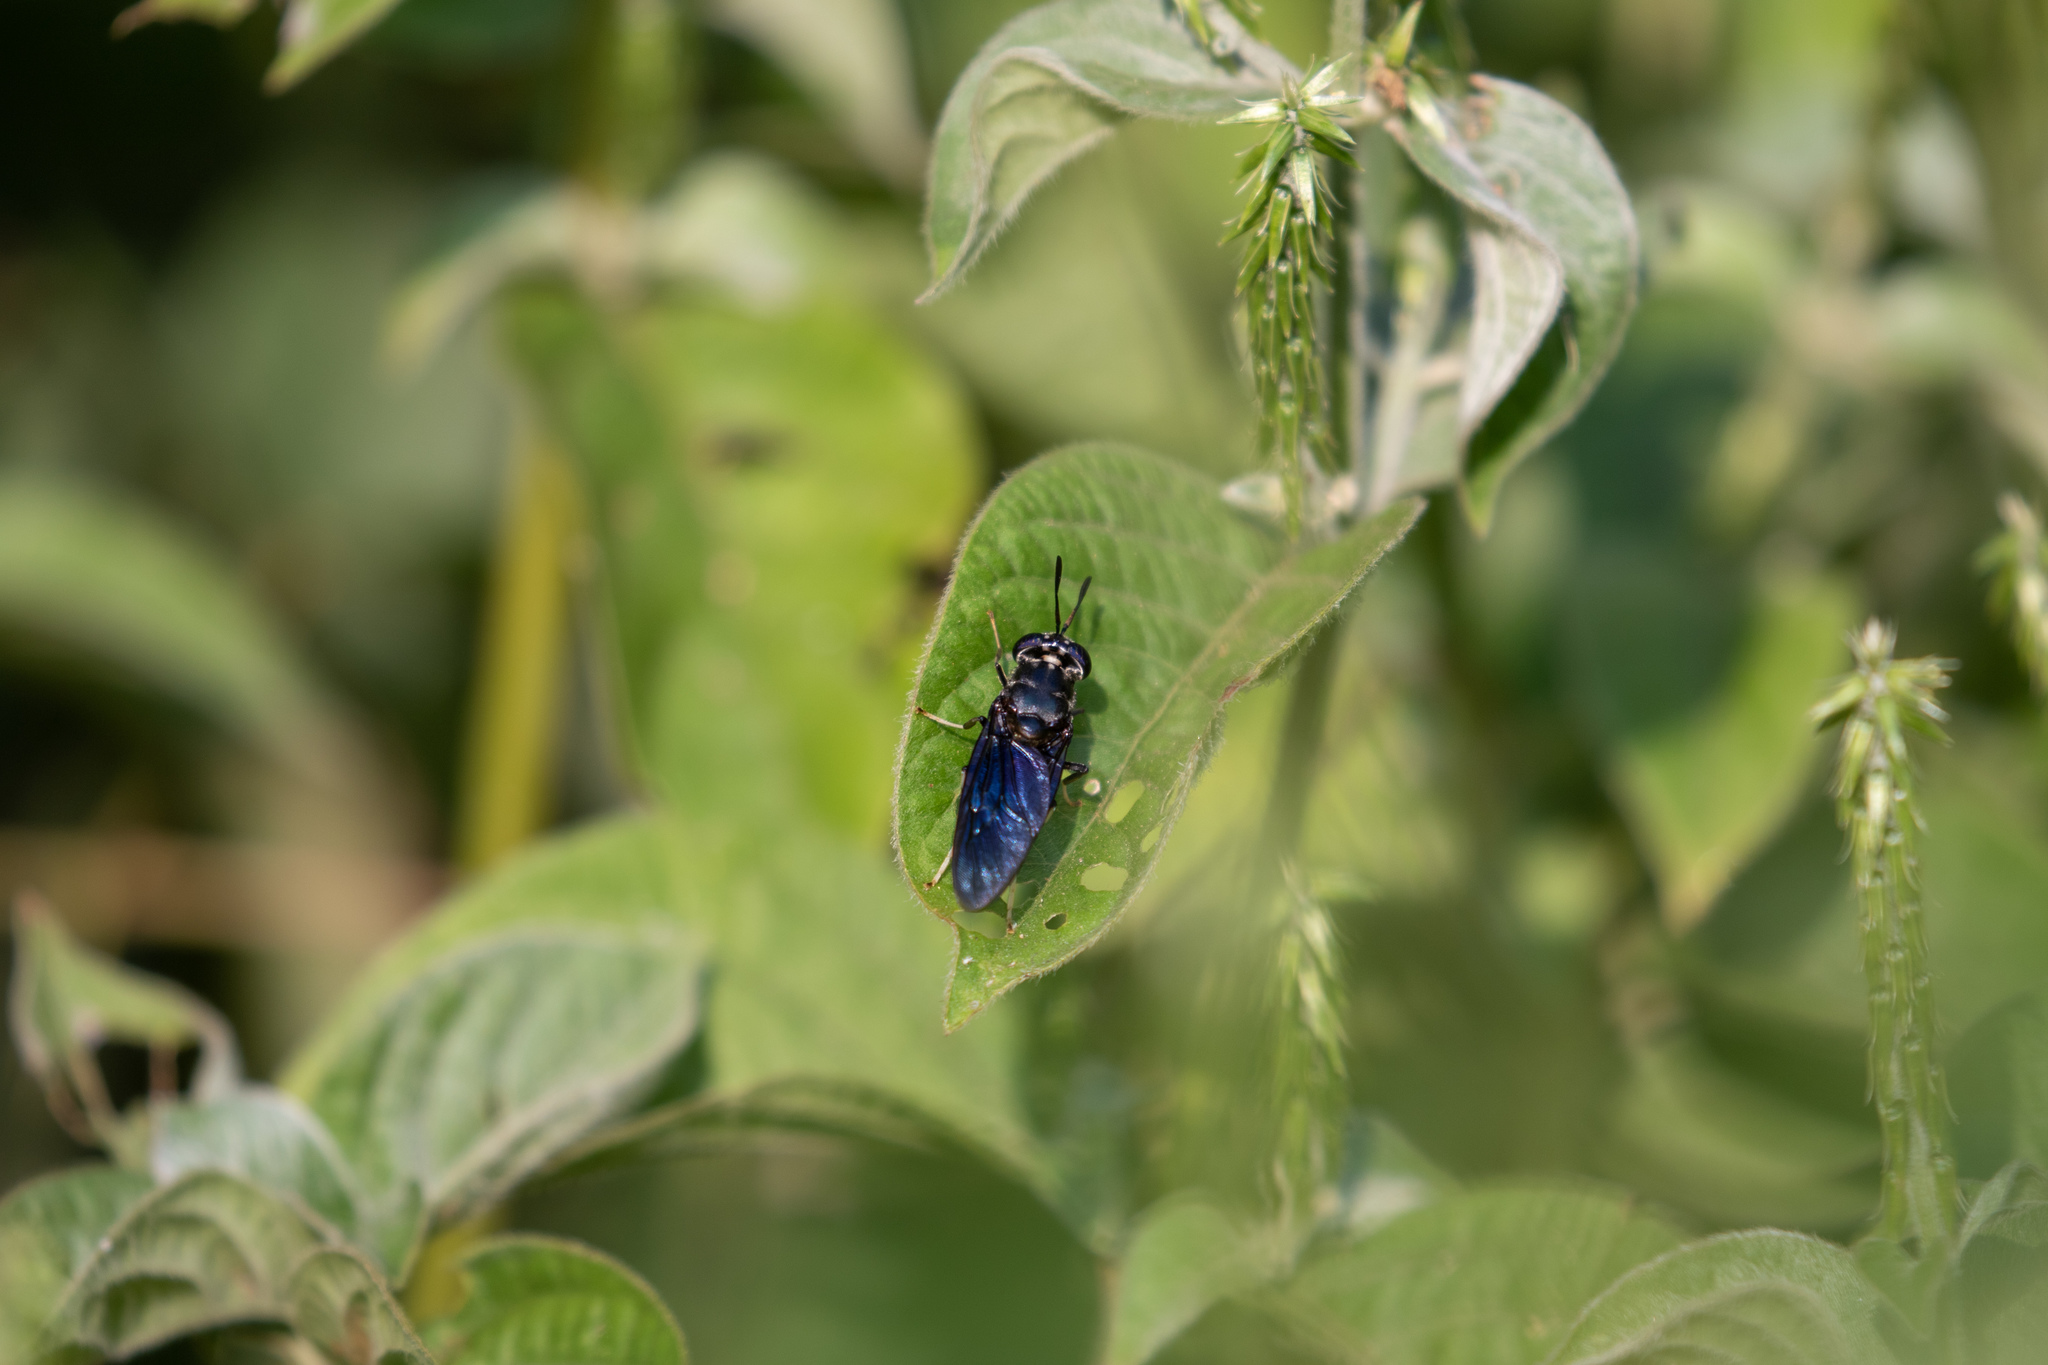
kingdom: Animalia
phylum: Arthropoda
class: Insecta
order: Diptera
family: Stratiomyidae
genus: Hermetia
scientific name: Hermetia illucens
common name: Black soldier fly
